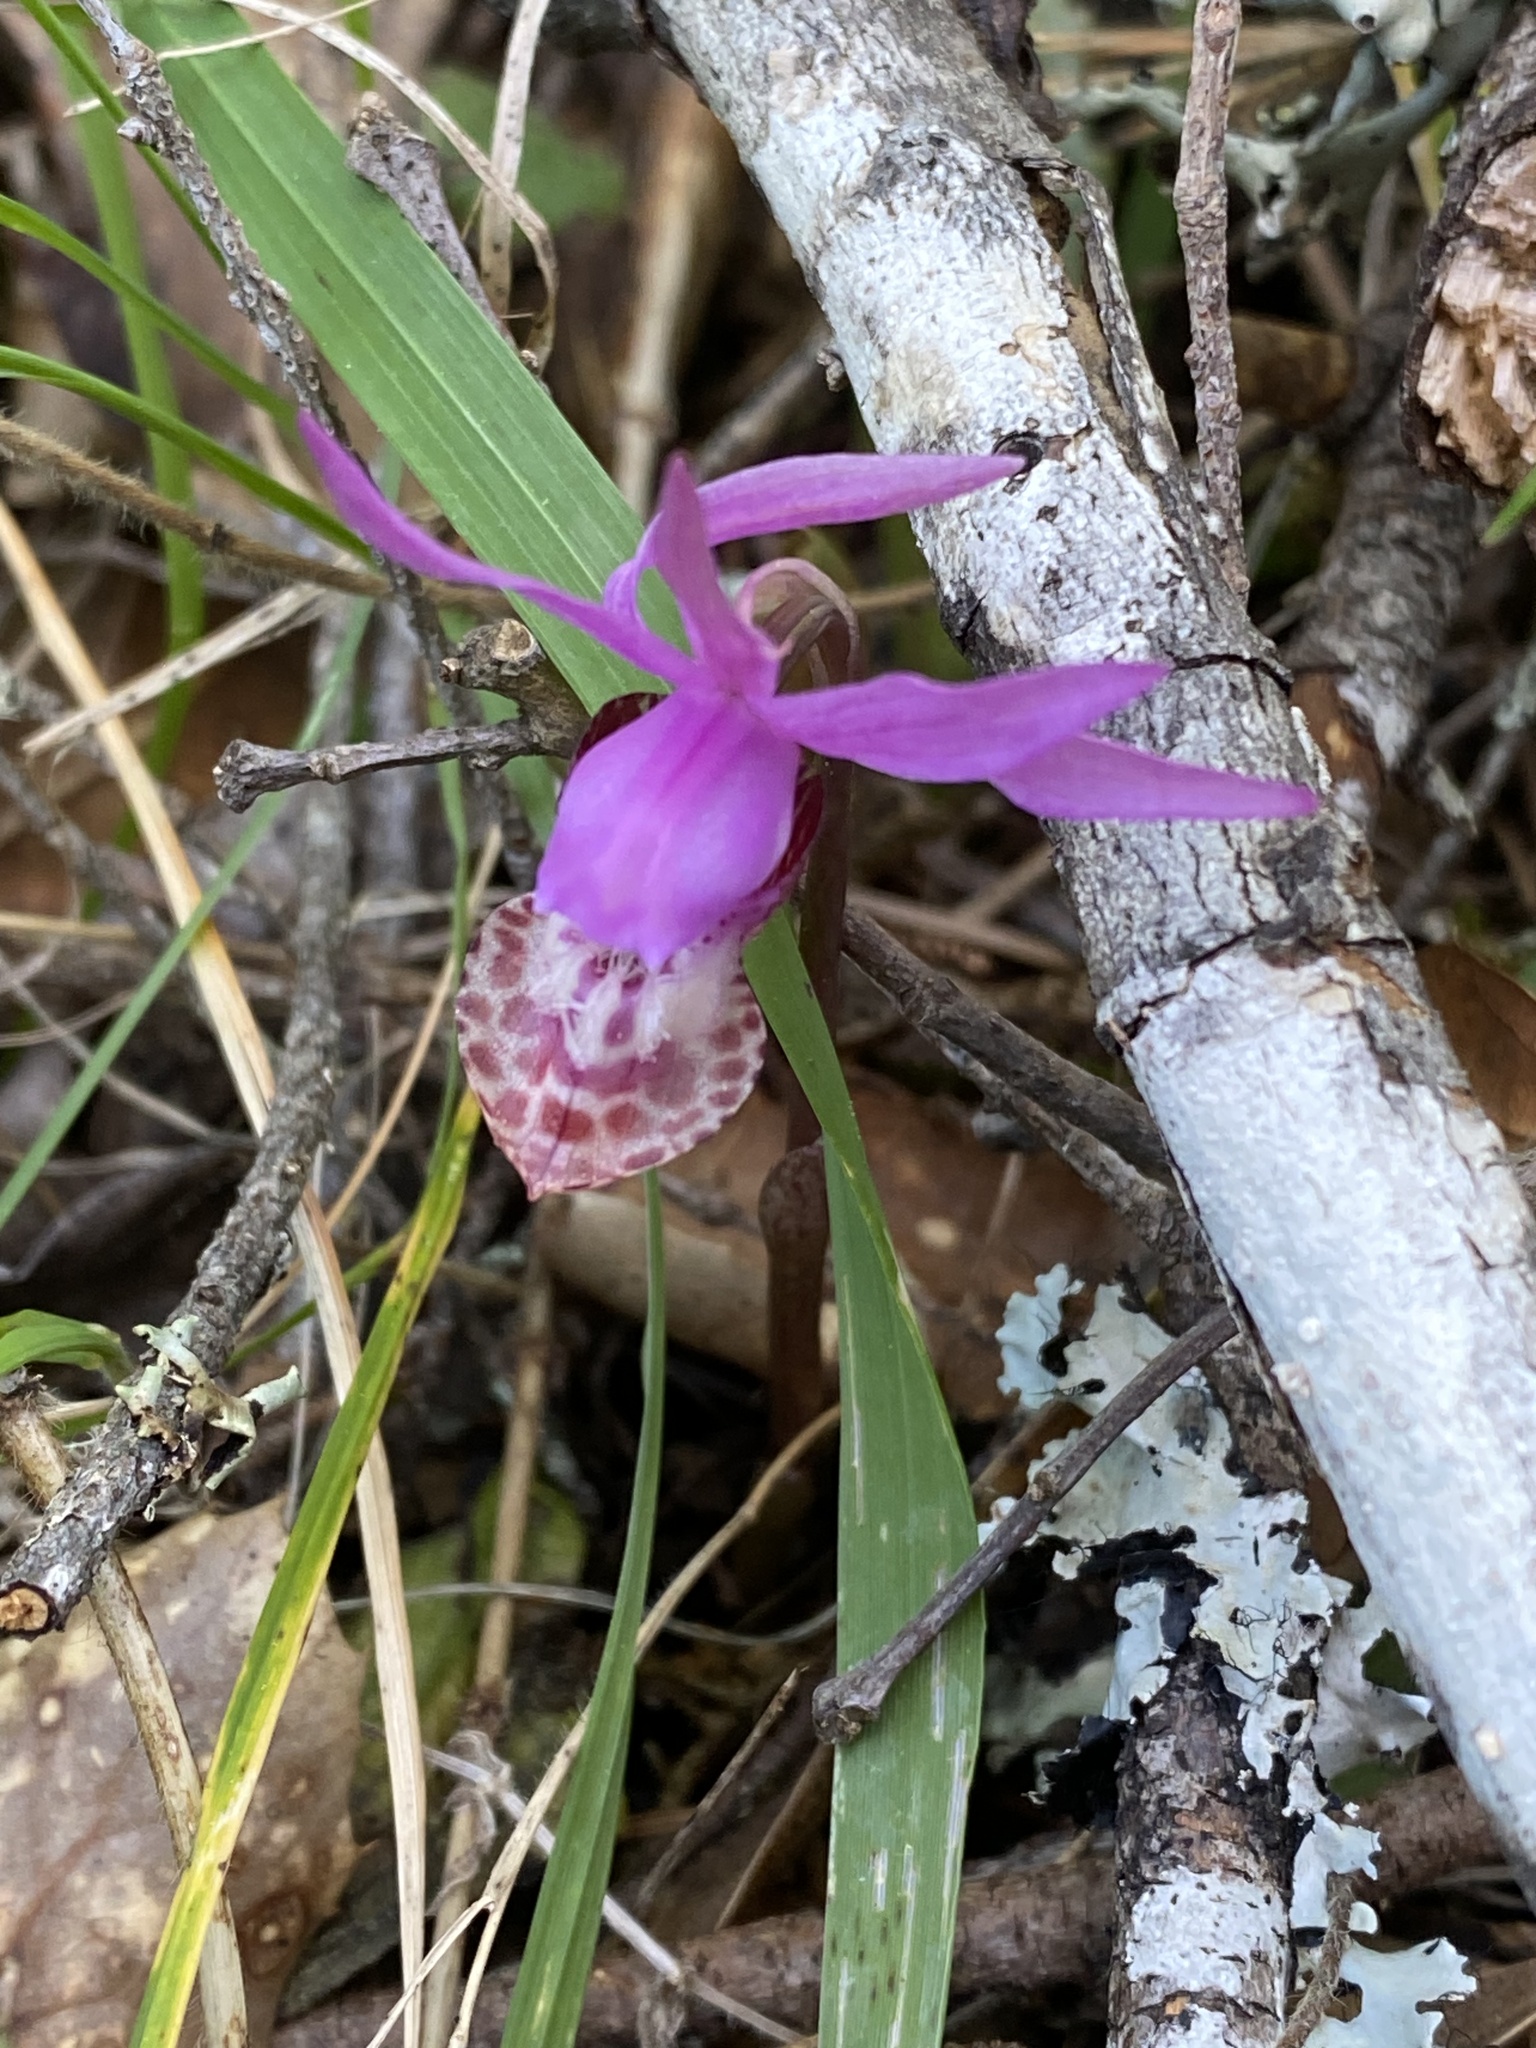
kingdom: Plantae
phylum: Tracheophyta
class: Liliopsida
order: Asparagales
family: Orchidaceae
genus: Calypso
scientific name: Calypso bulbosa
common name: Calypso
